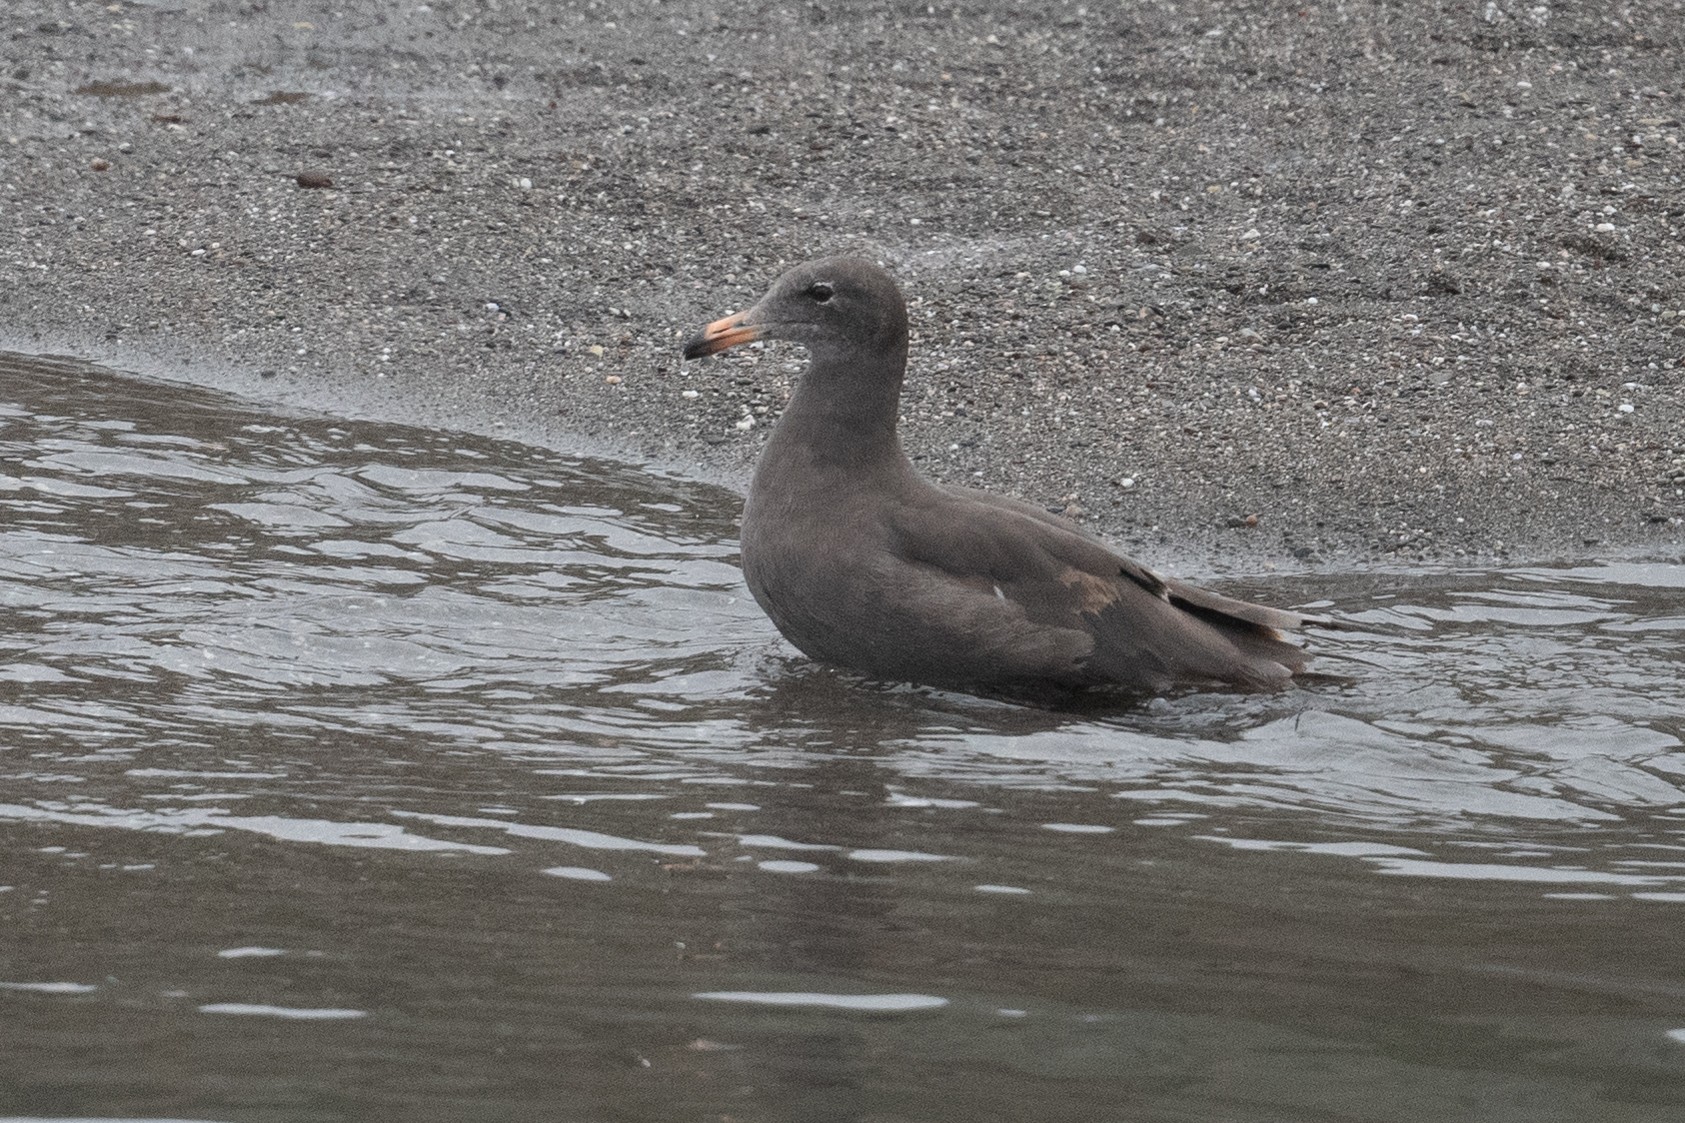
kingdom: Animalia
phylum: Chordata
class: Aves
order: Charadriiformes
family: Laridae
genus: Larus
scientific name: Larus heermanni
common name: Heermann's gull
